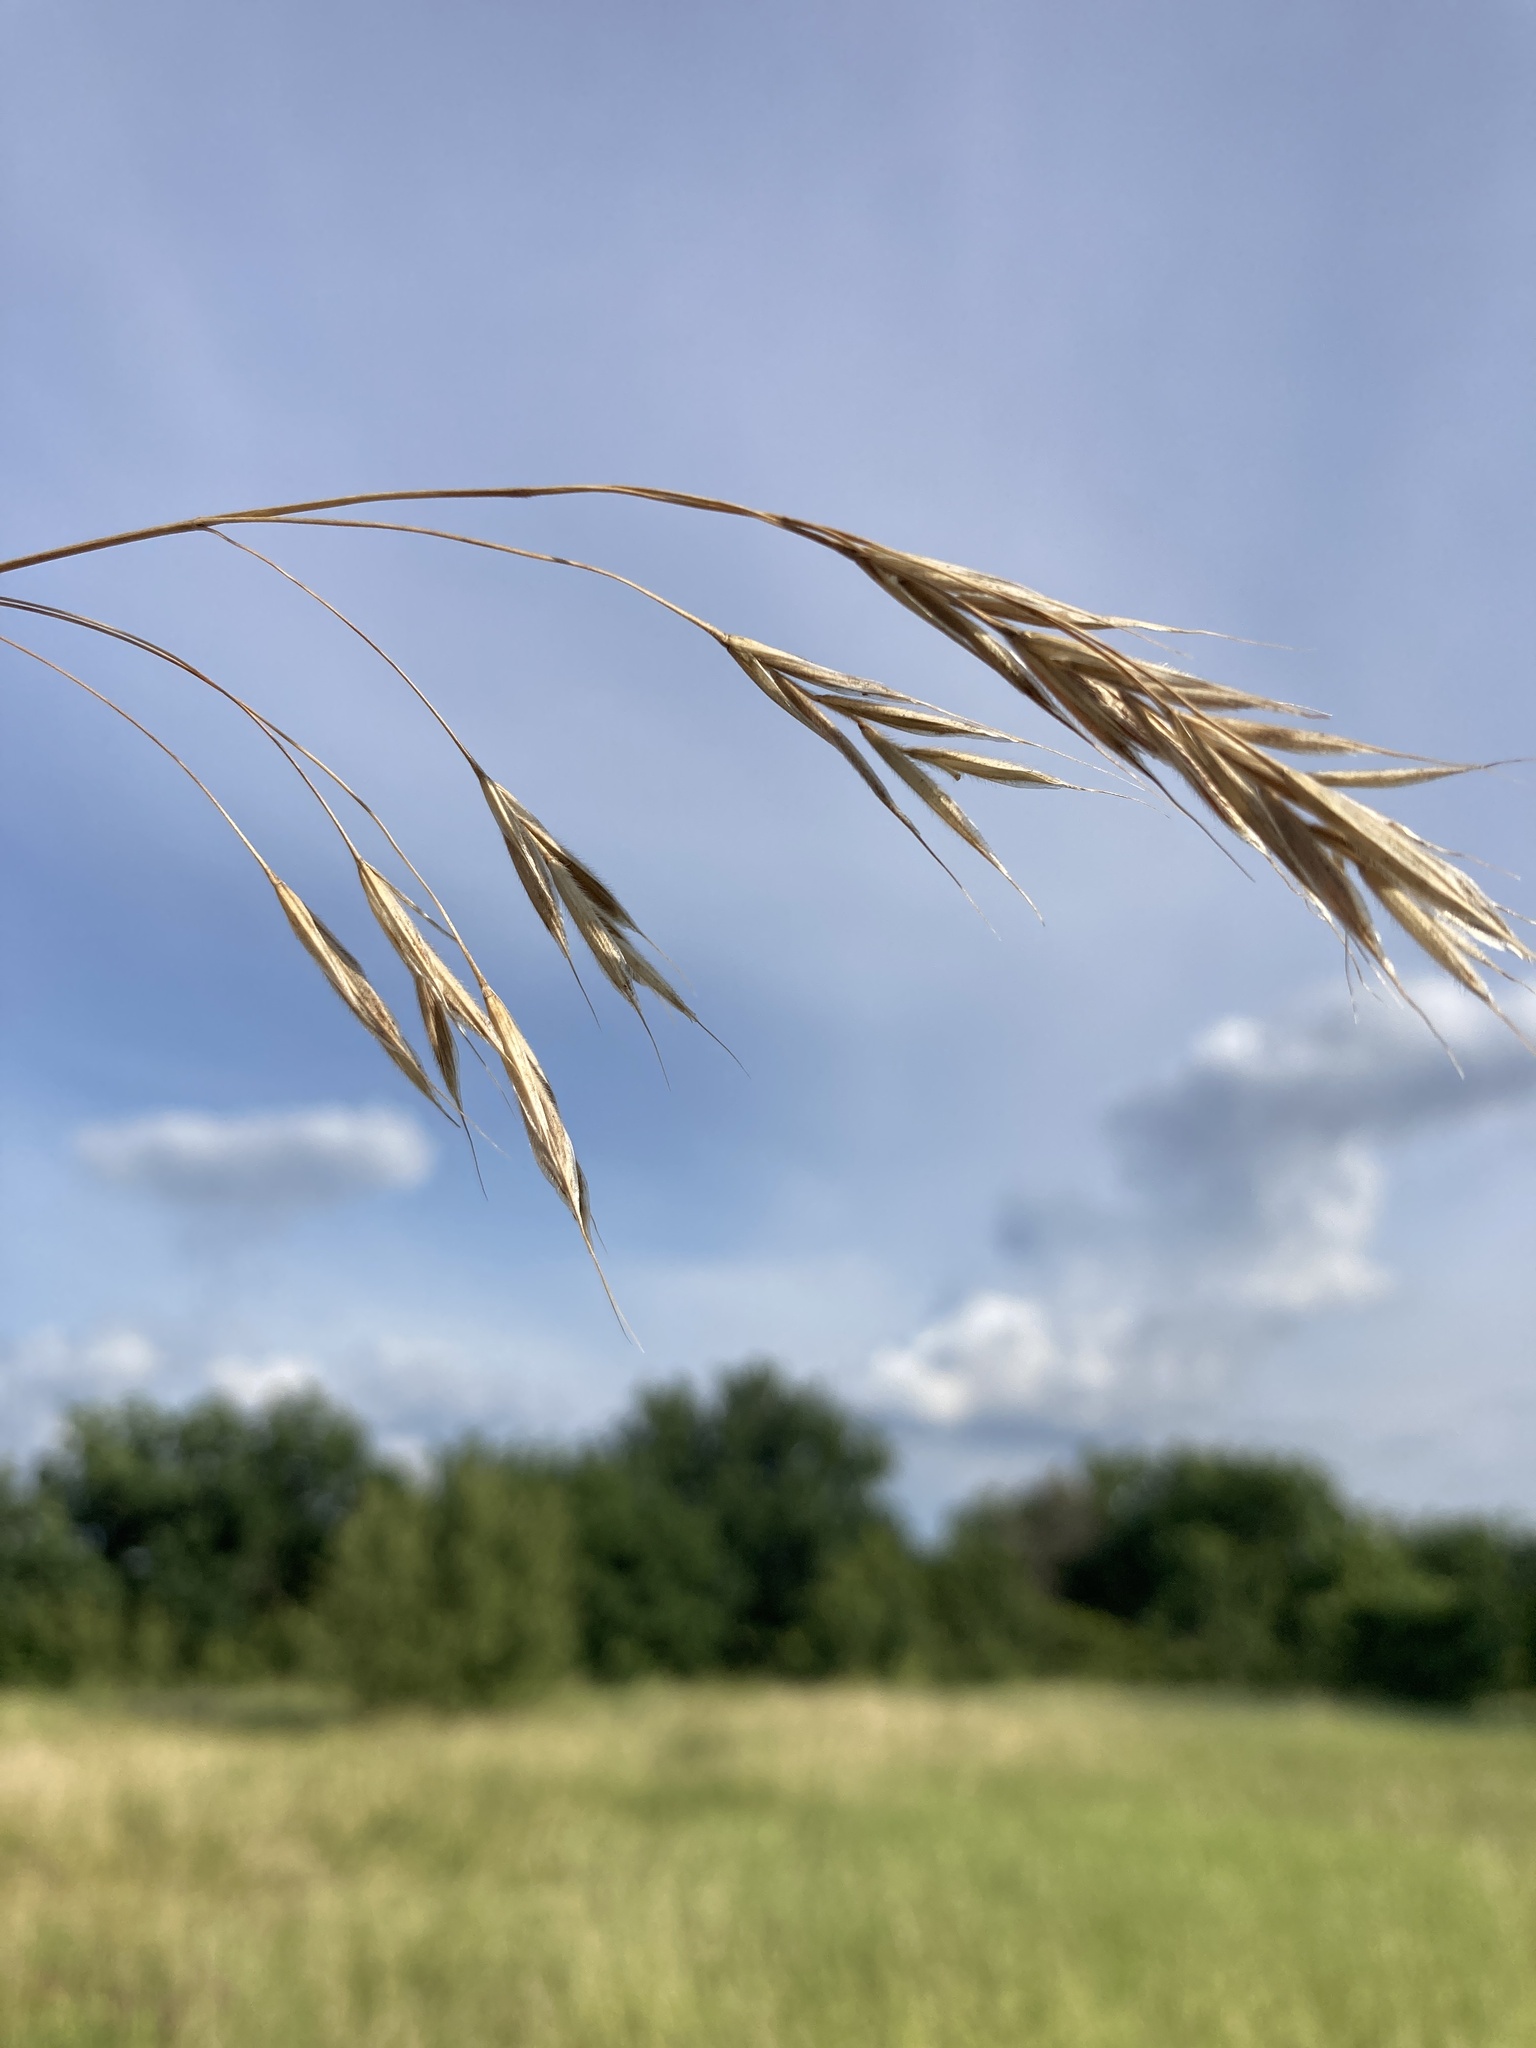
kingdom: Plantae
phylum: Tracheophyta
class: Liliopsida
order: Poales
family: Poaceae
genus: Bromus
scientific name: Bromus riparius
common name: Meadow brome
